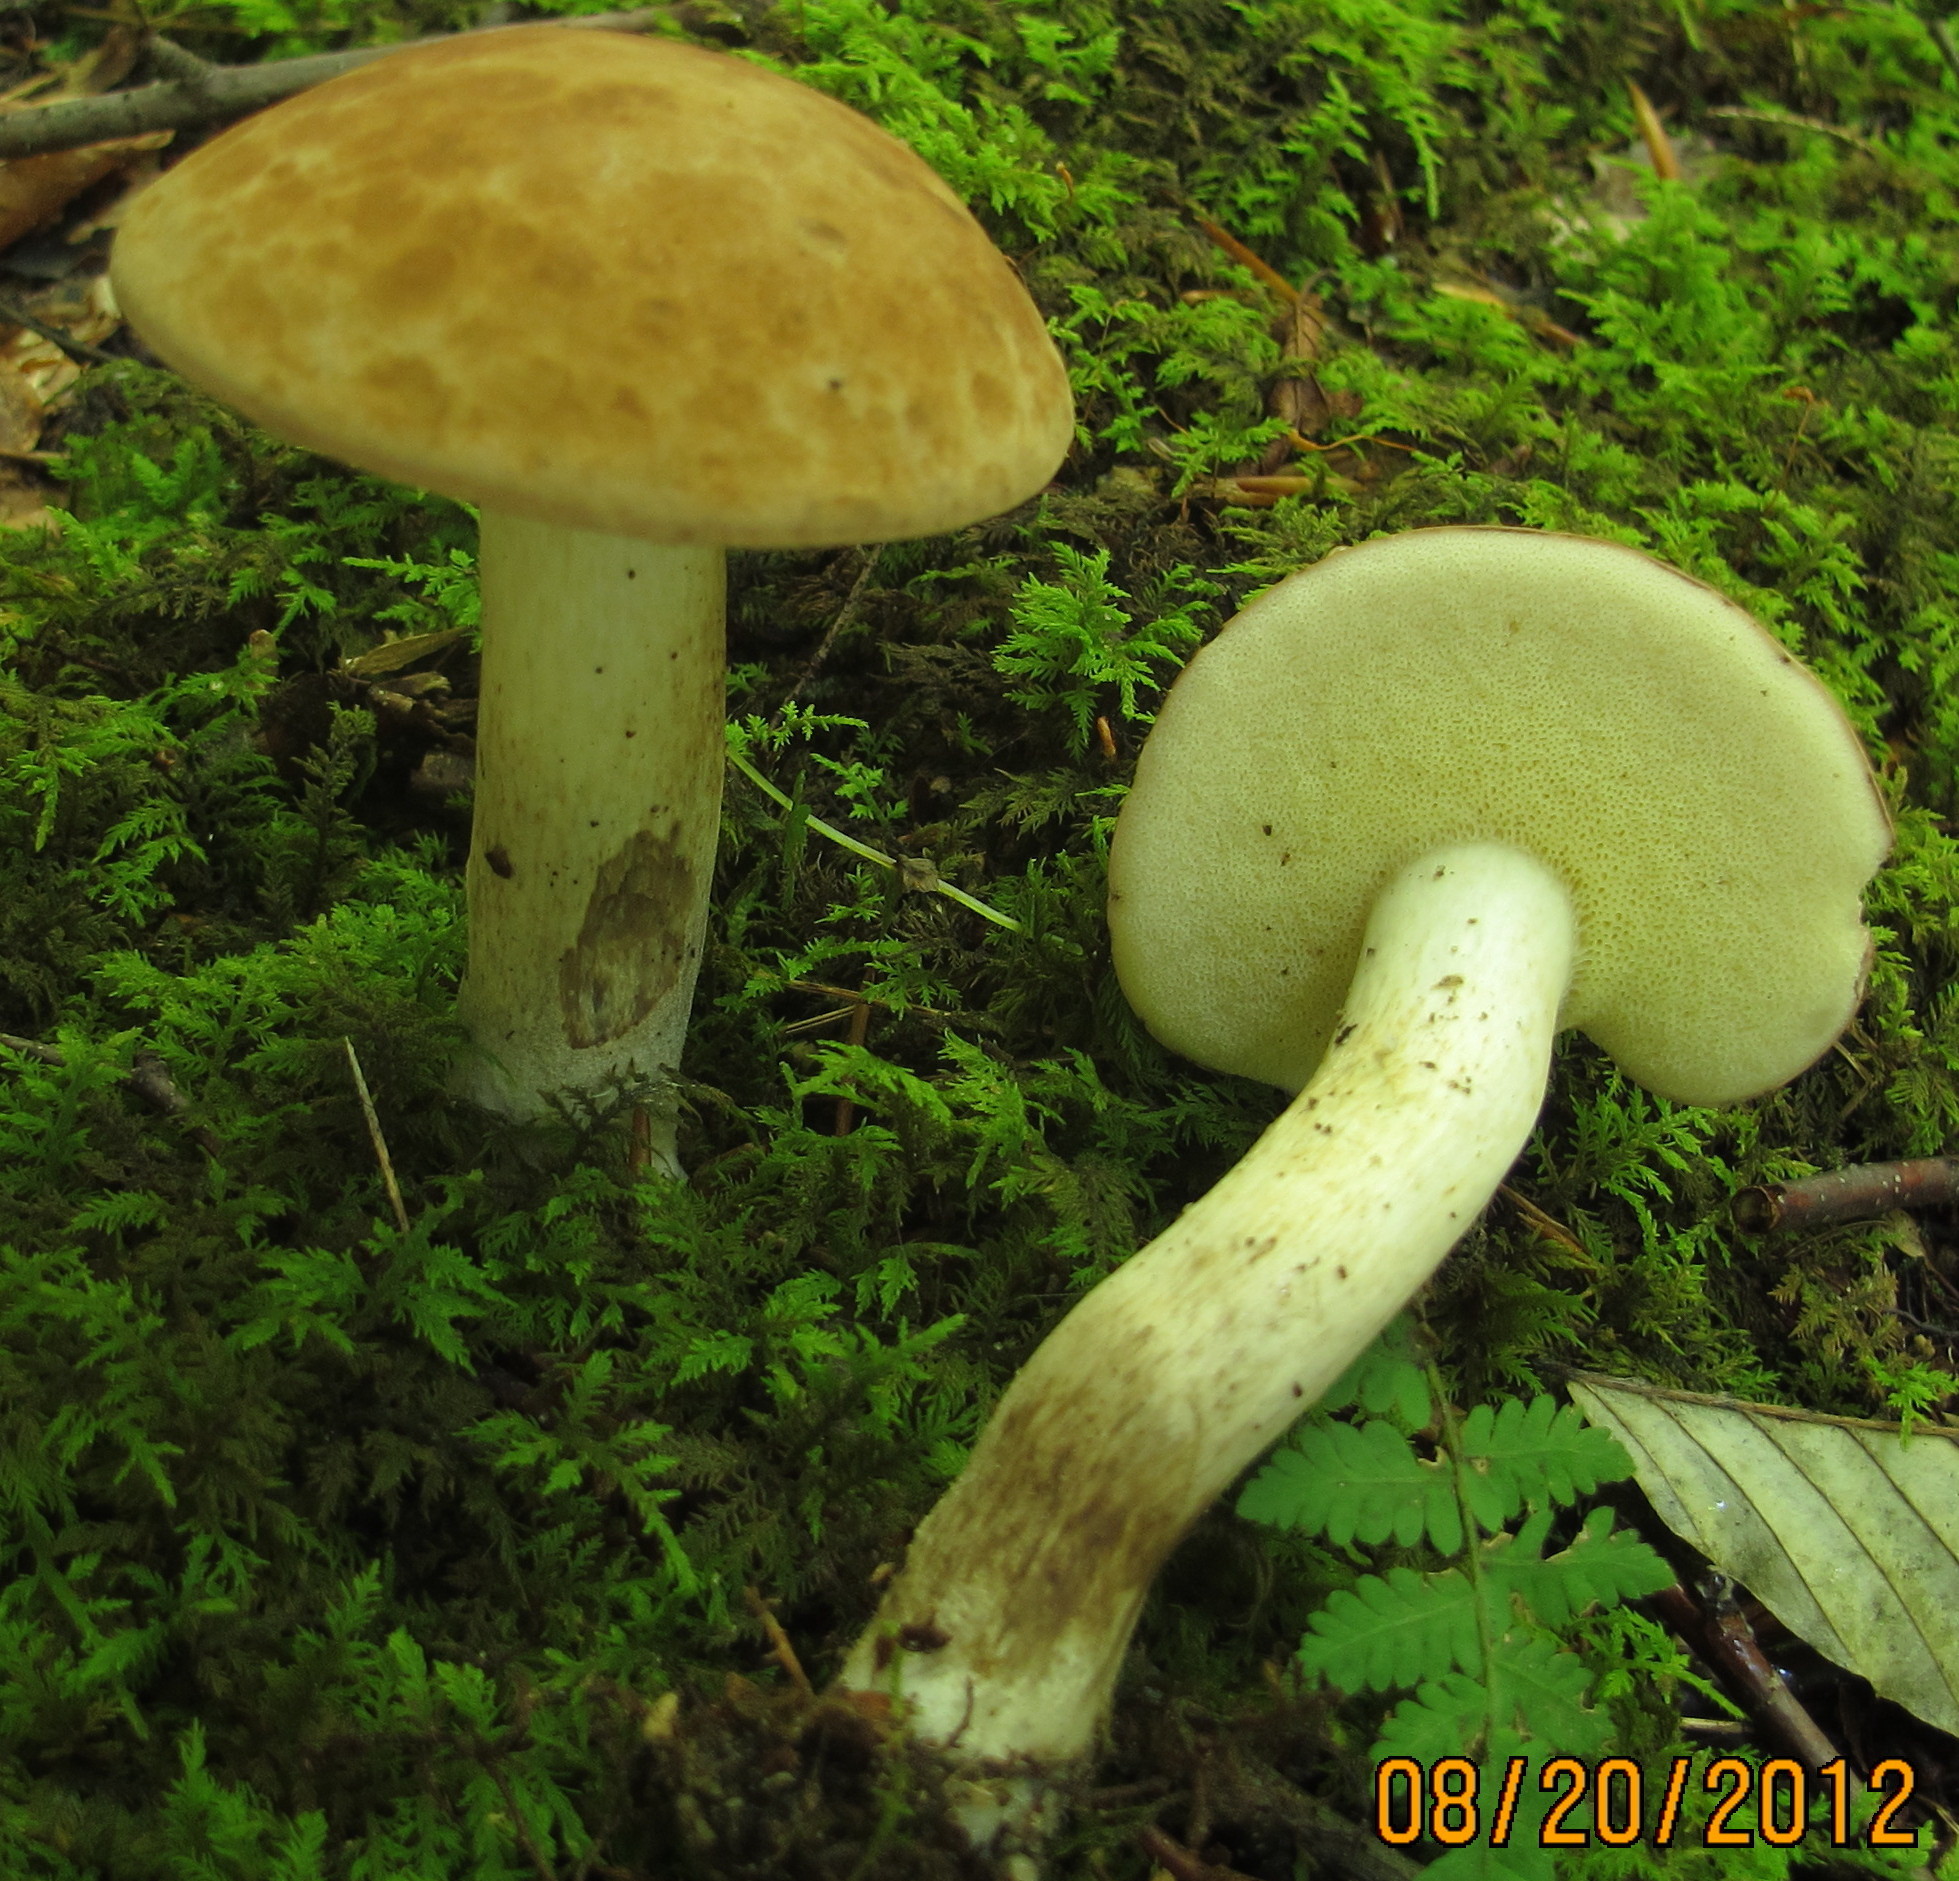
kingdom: Fungi
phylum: Basidiomycota
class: Agaricomycetes
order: Boletales
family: Boletaceae
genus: Imleria
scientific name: Imleria pallida
